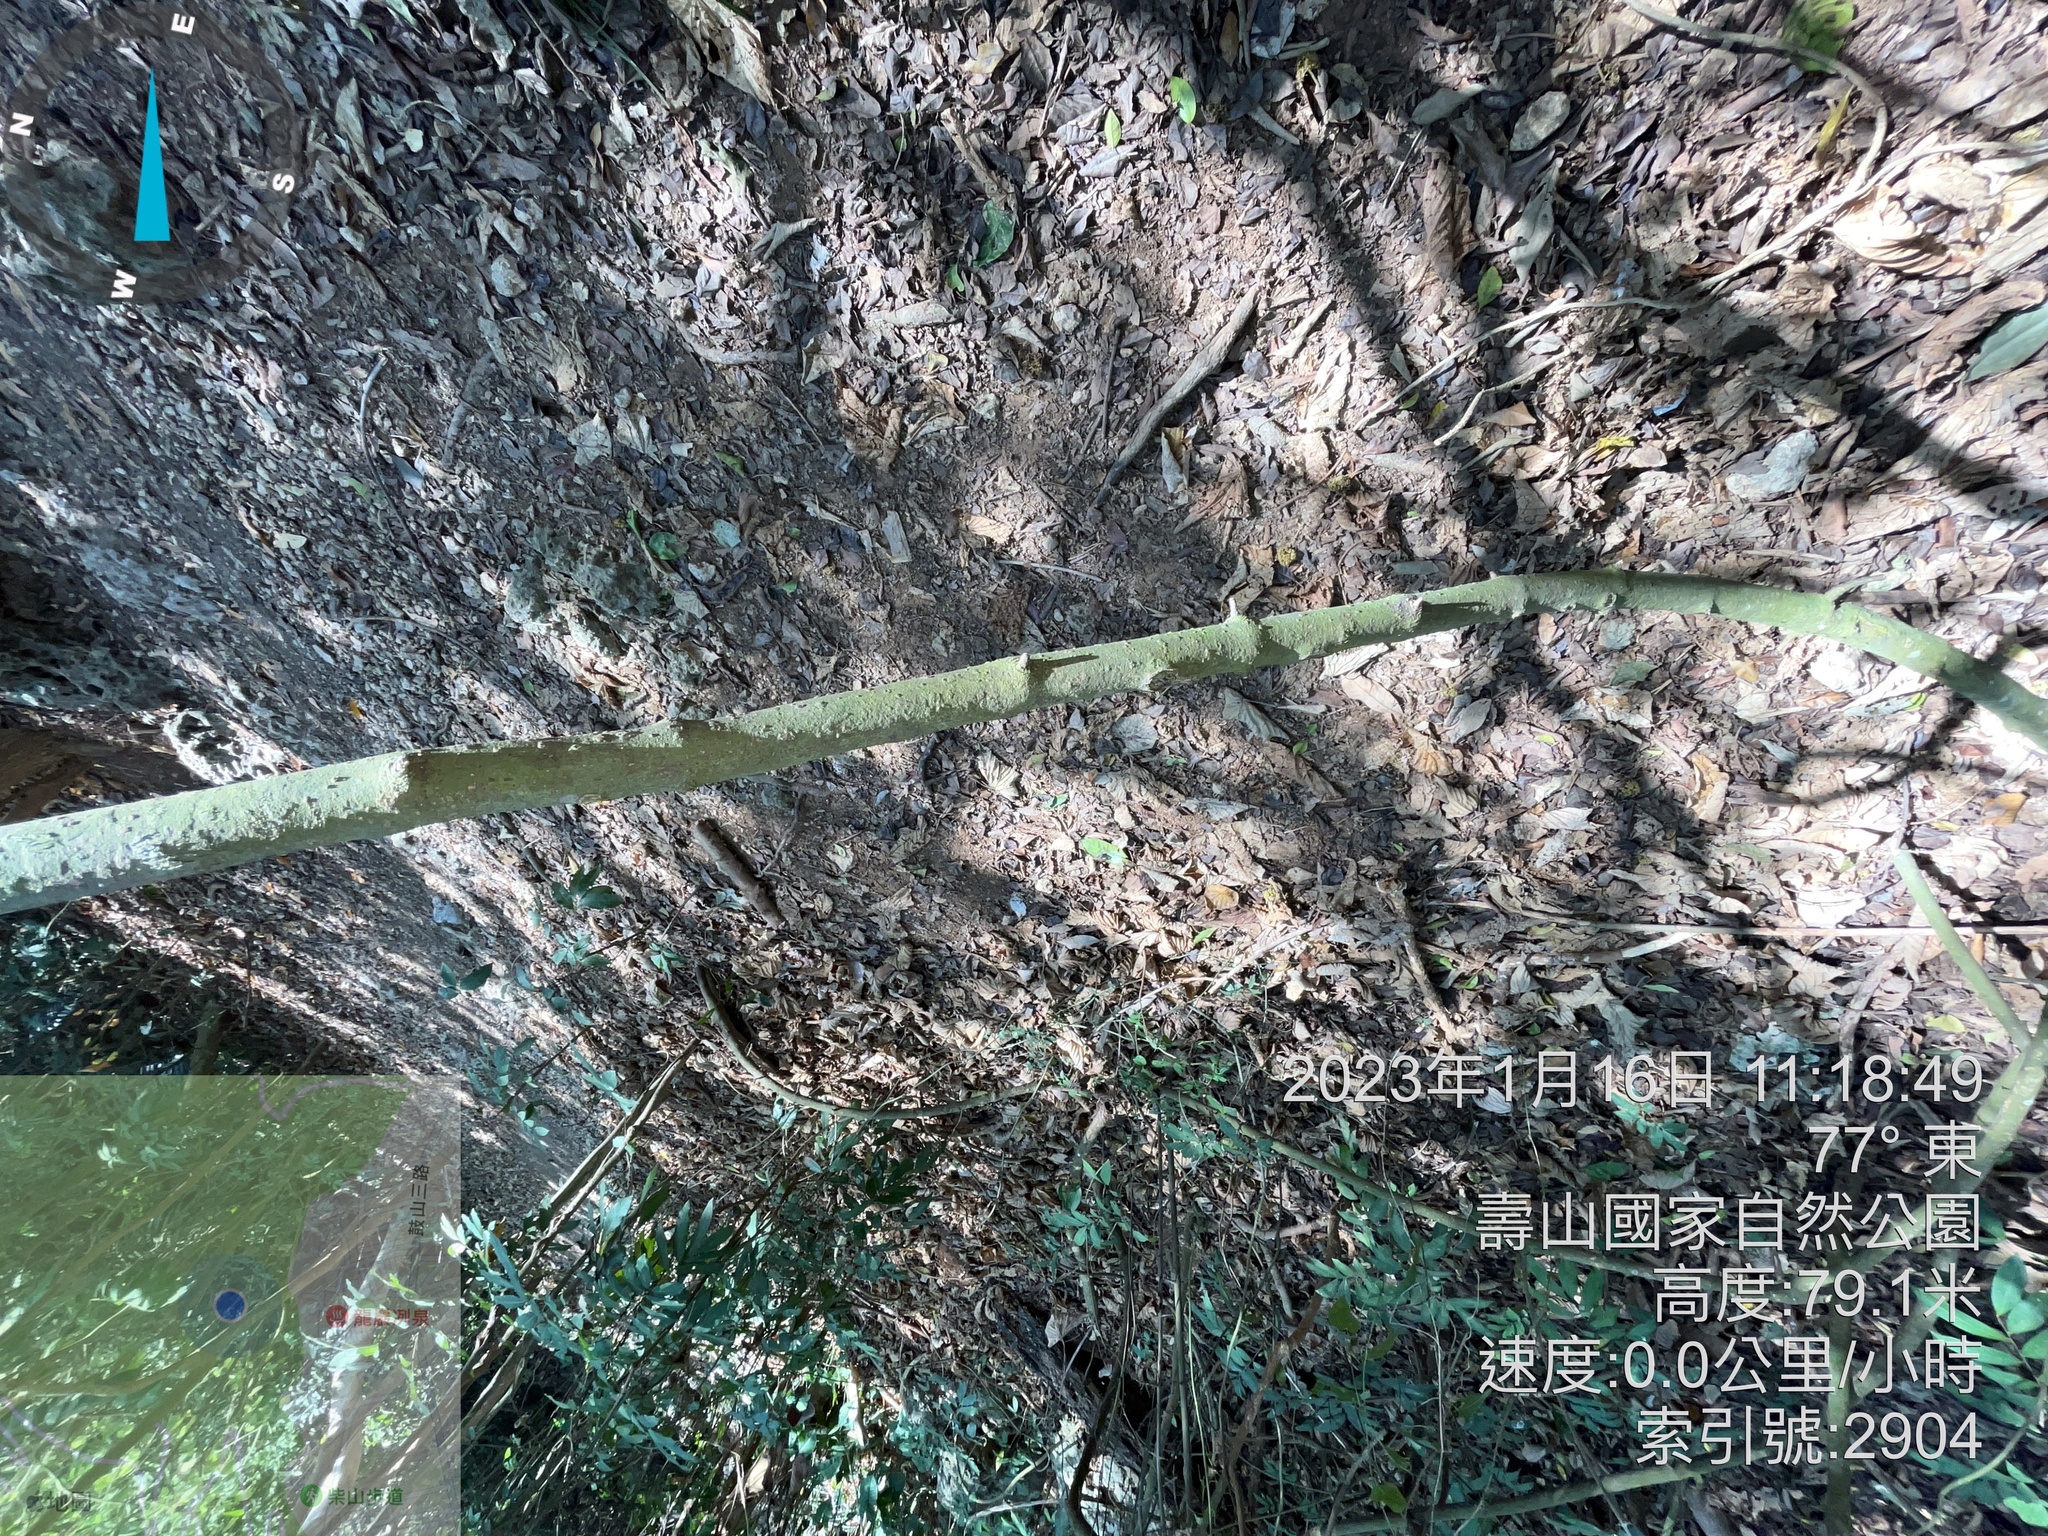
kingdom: Plantae
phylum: Tracheophyta
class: Magnoliopsida
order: Caryophyllales
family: Nyctaginaceae
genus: Pisonia
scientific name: Pisonia aculeata
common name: Cockspur vine
